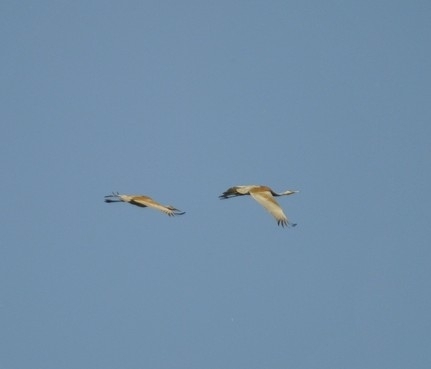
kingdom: Animalia
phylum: Chordata
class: Aves
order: Gruiformes
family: Gruidae
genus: Grus
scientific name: Grus canadensis
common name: Sandhill crane
